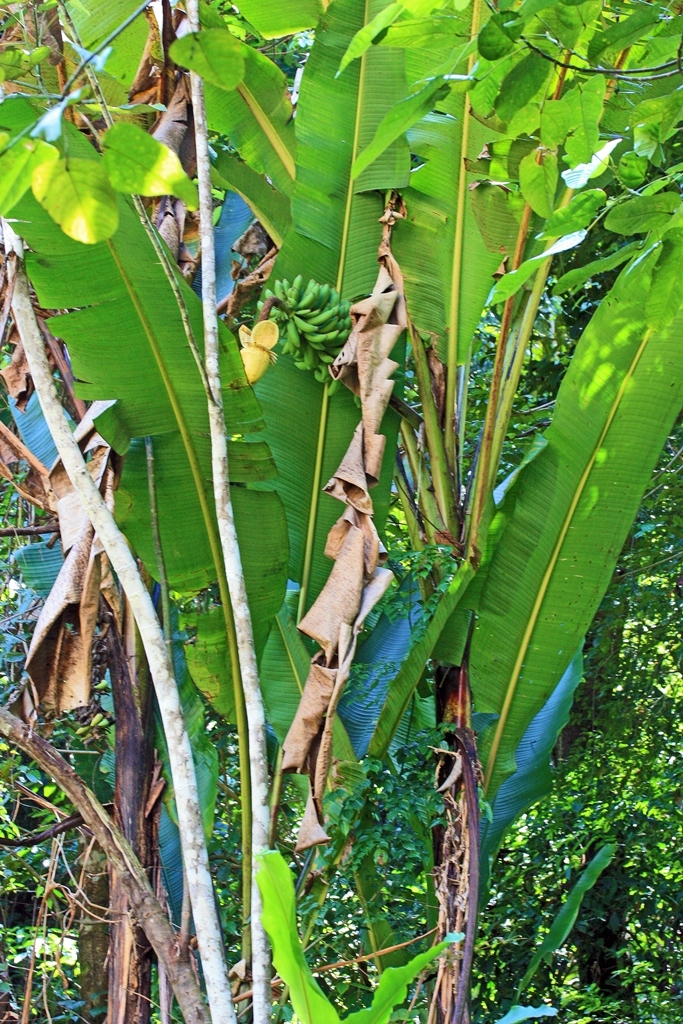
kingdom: Plantae
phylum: Tracheophyta
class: Liliopsida
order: Zingiberales
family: Musaceae
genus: Musa
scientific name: Musa borneensis
